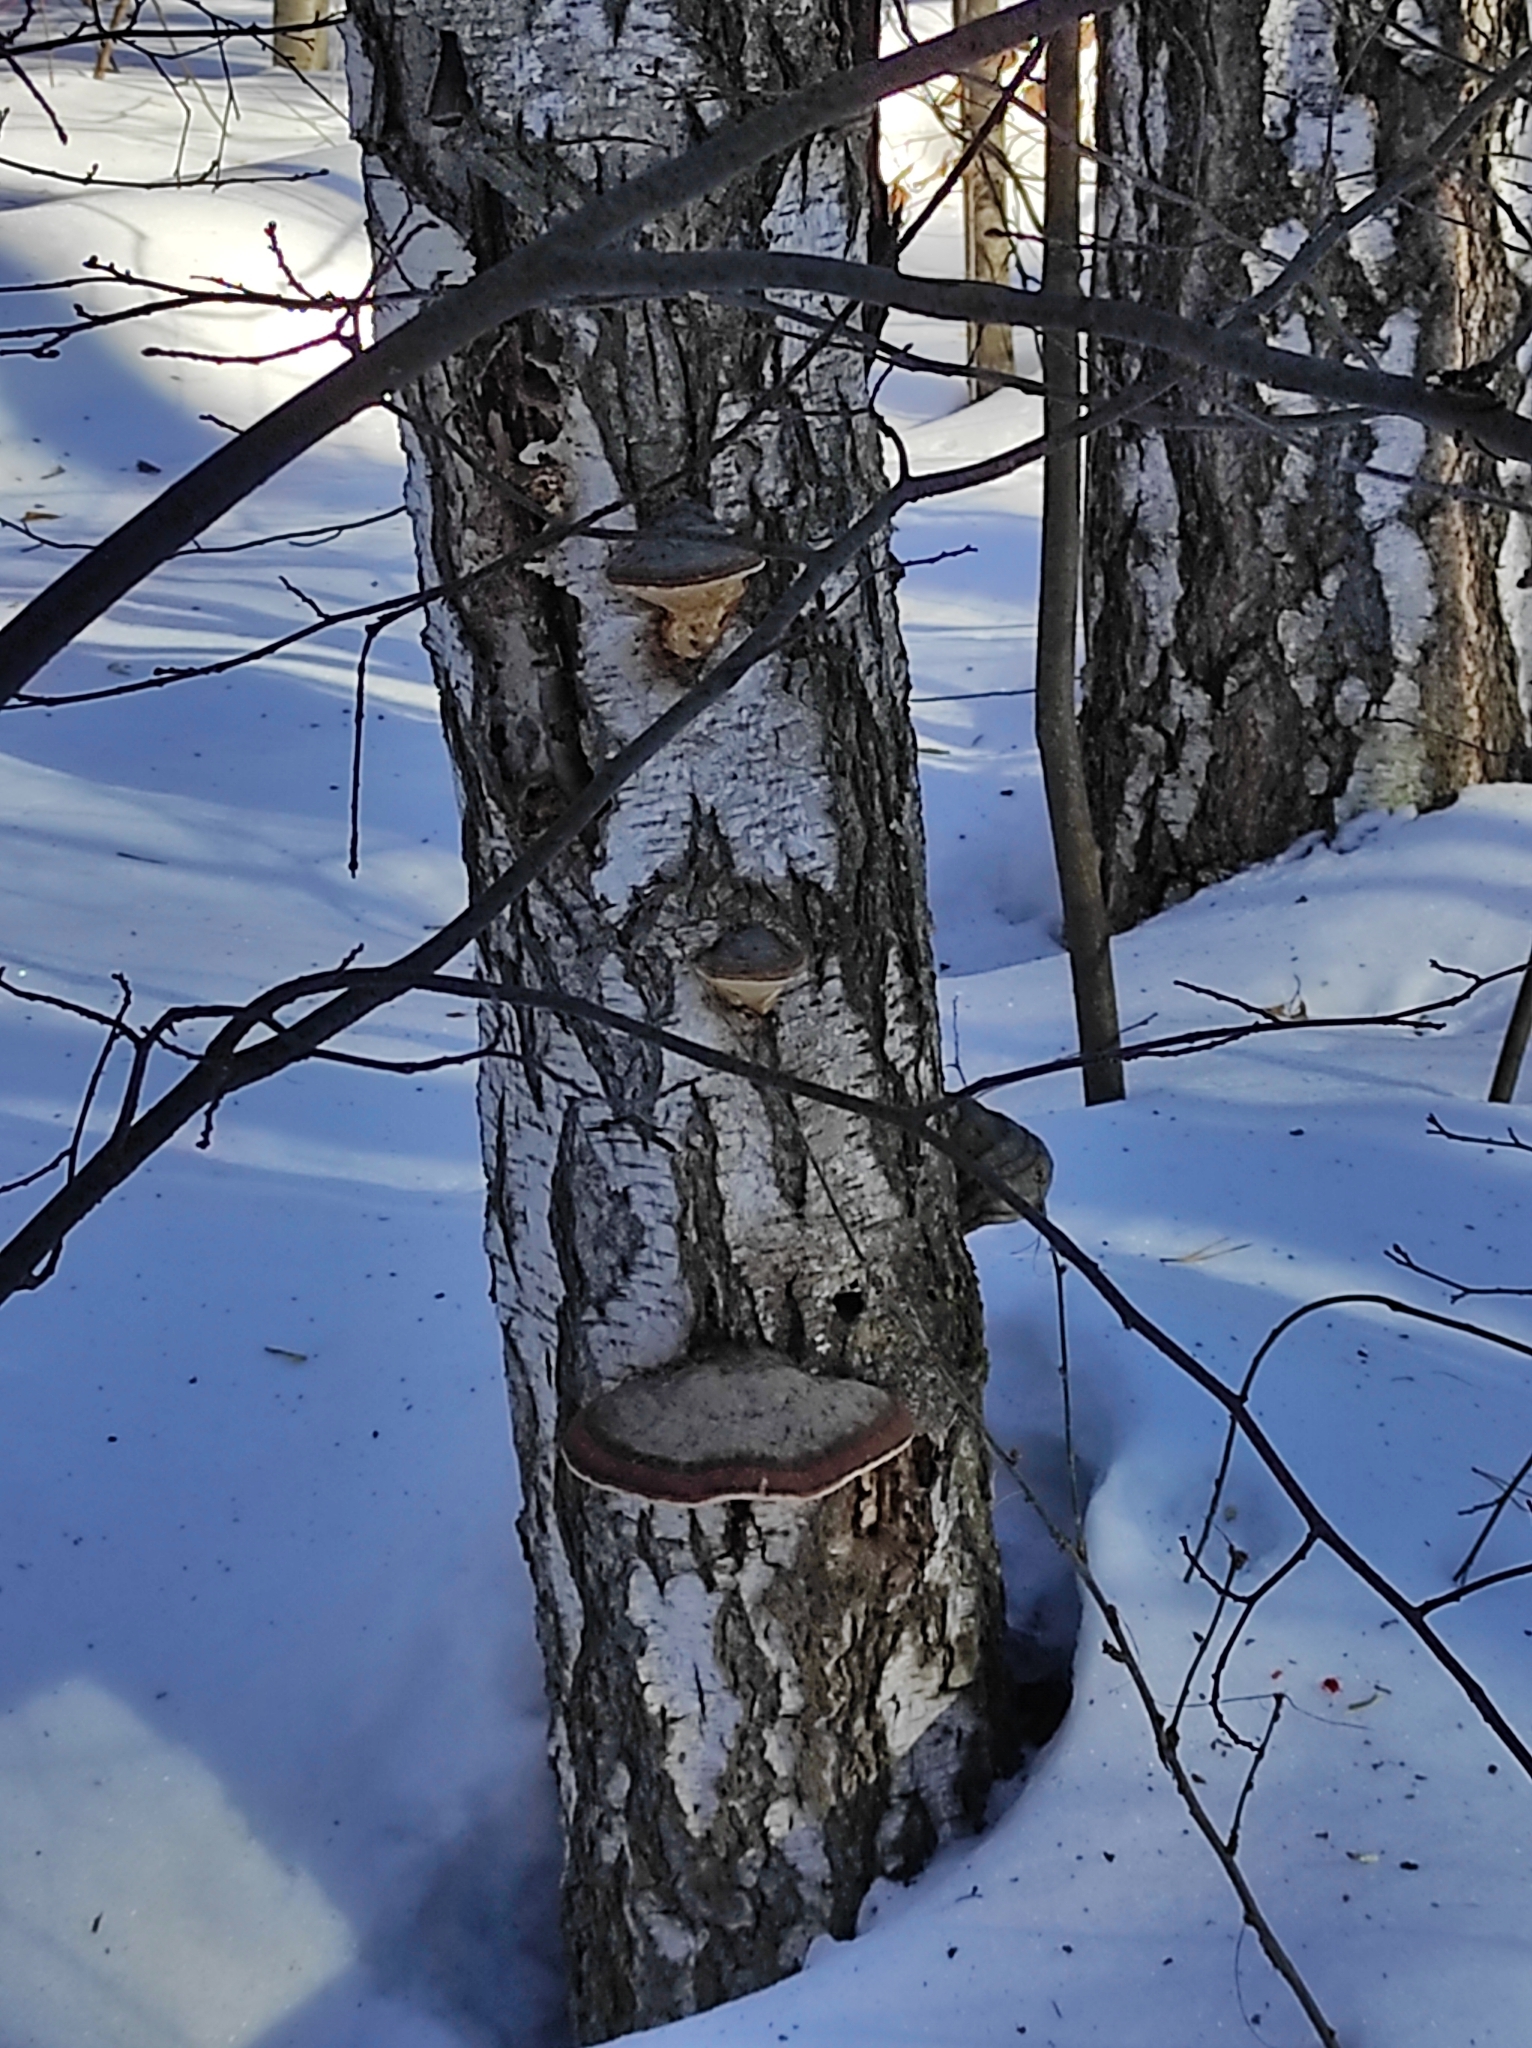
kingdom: Fungi
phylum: Basidiomycota
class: Agaricomycetes
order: Polyporales
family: Fomitopsidaceae
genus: Fomitopsis
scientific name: Fomitopsis pinicola
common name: Red-belted bracket
